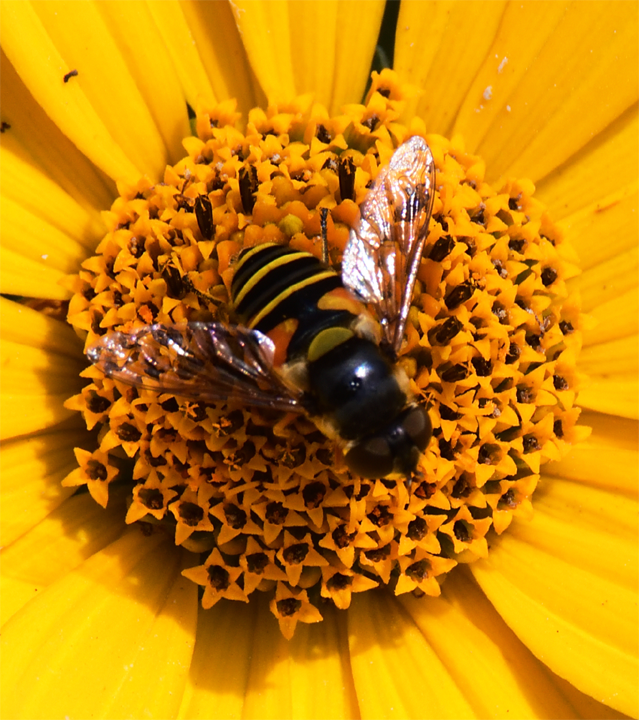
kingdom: Animalia
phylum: Arthropoda
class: Insecta
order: Diptera
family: Syrphidae
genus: Eristalis
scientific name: Eristalis transversa
